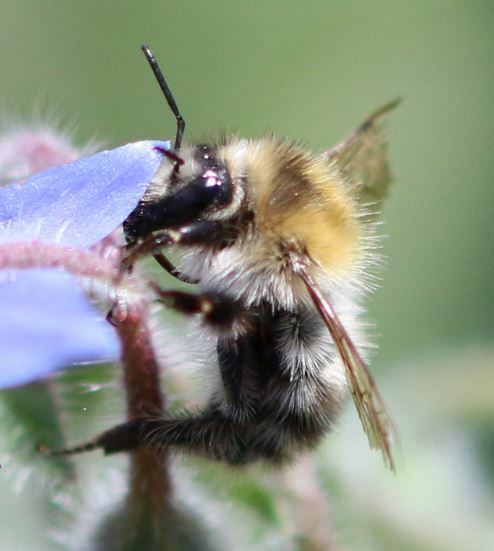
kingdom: Animalia
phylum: Arthropoda
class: Insecta
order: Hymenoptera
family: Apidae
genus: Bombus
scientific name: Bombus pascuorum
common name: Common carder bee
